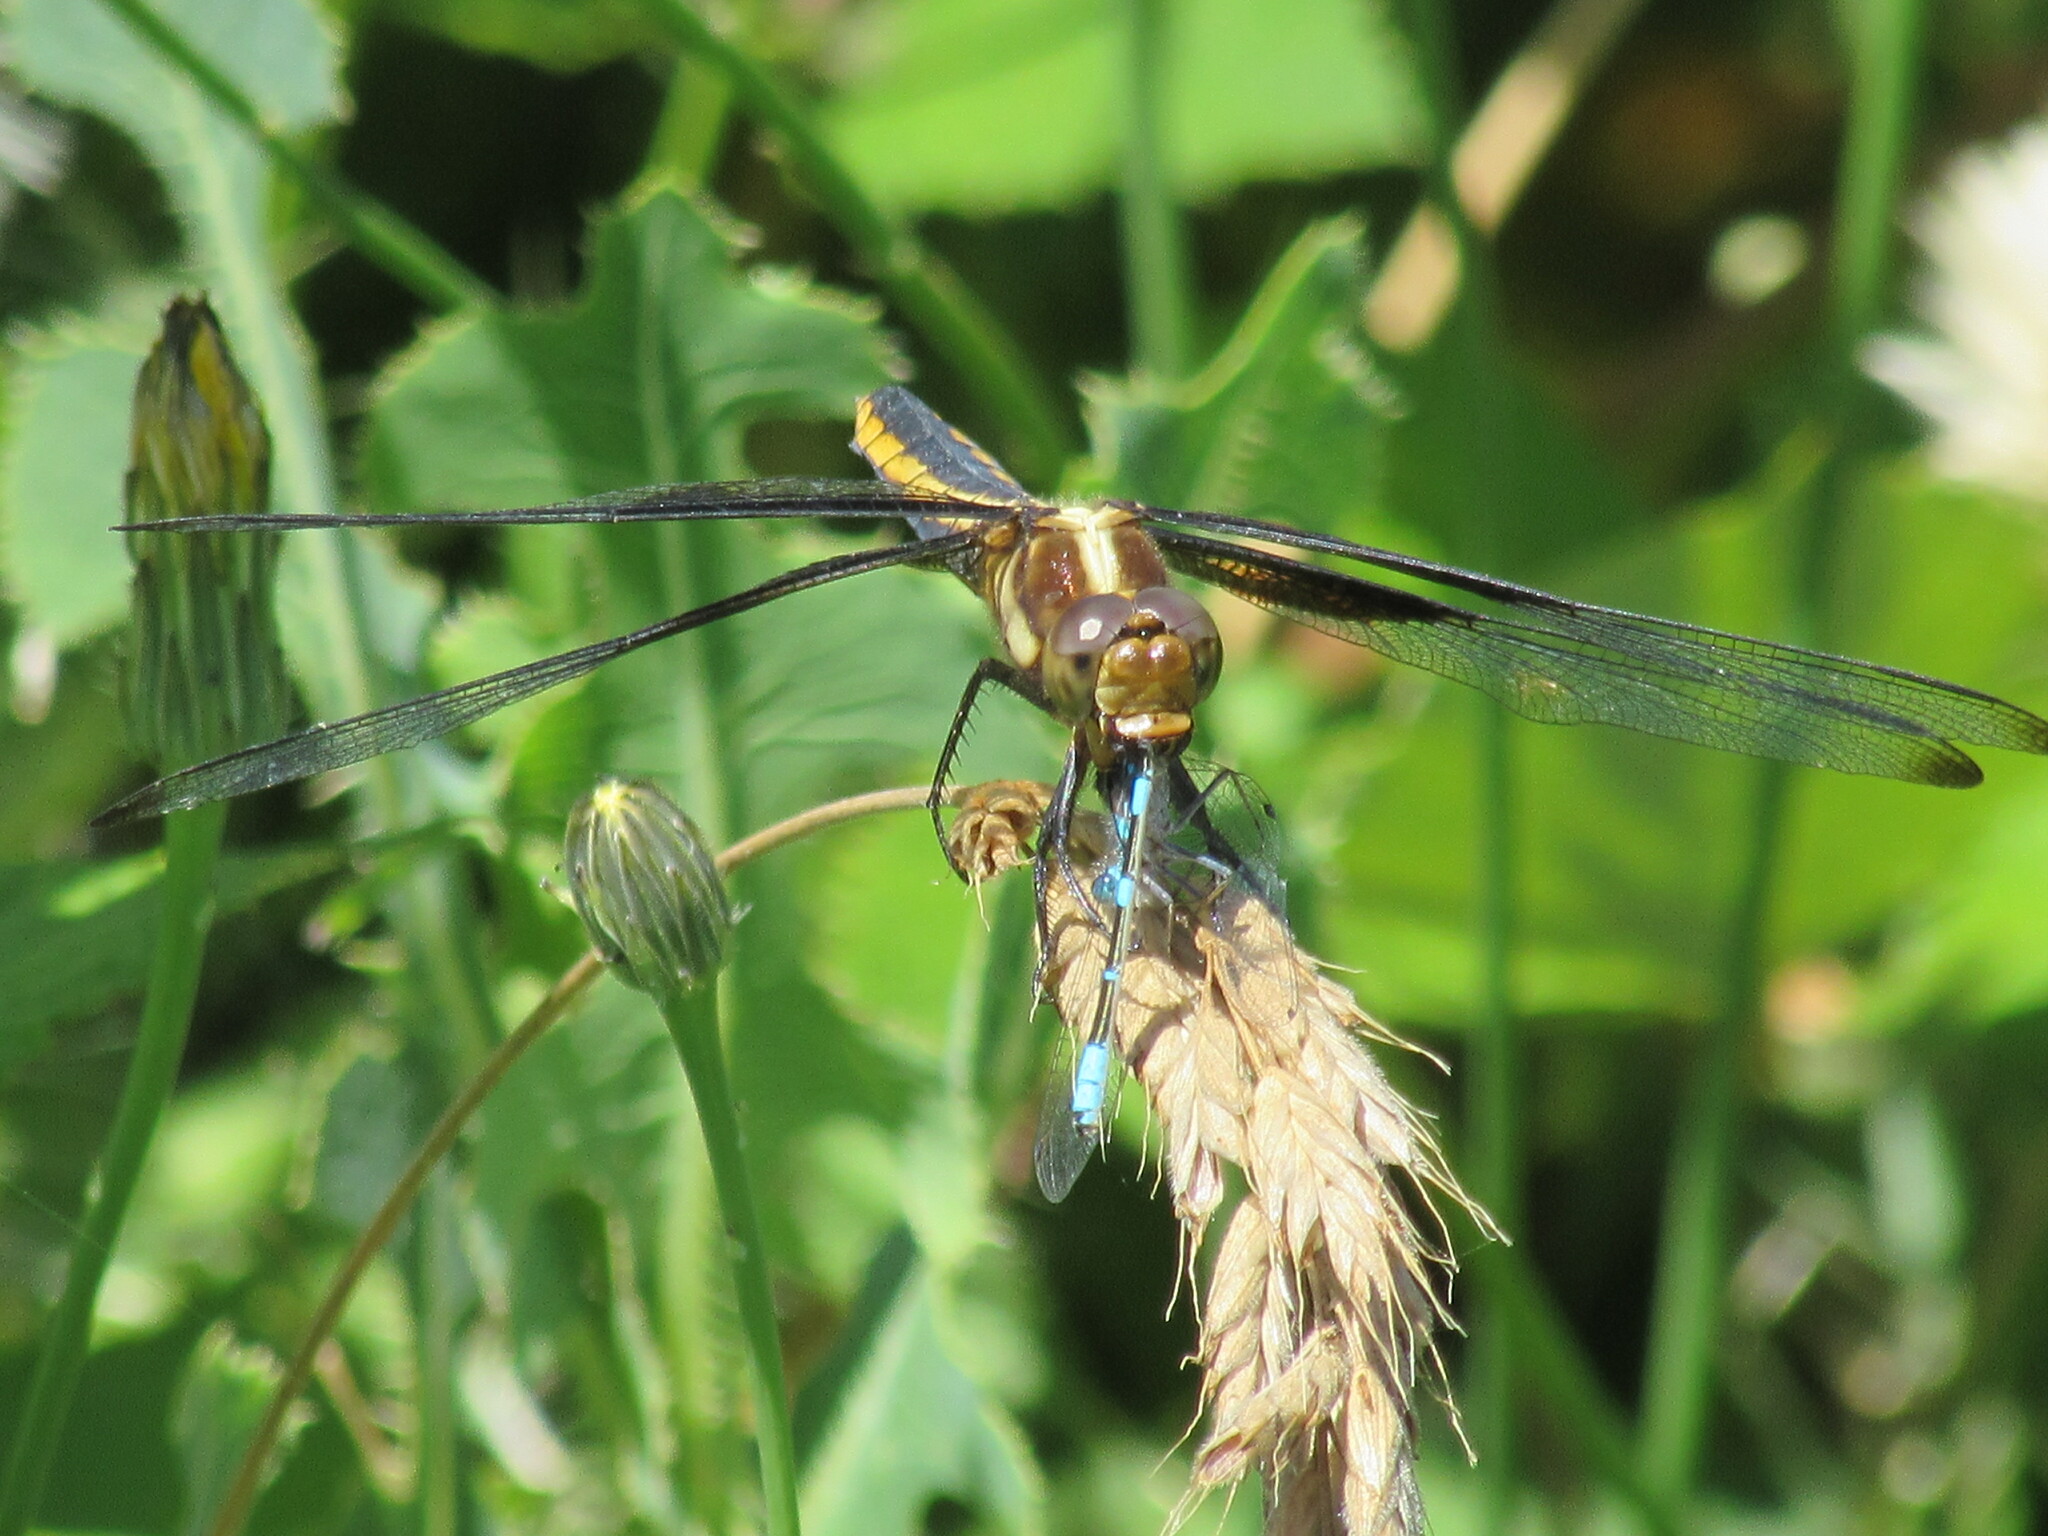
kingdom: Animalia
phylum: Arthropoda
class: Insecta
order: Odonata
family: Libellulidae
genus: Libellula
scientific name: Libellula luctuosa
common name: Widow skimmer
